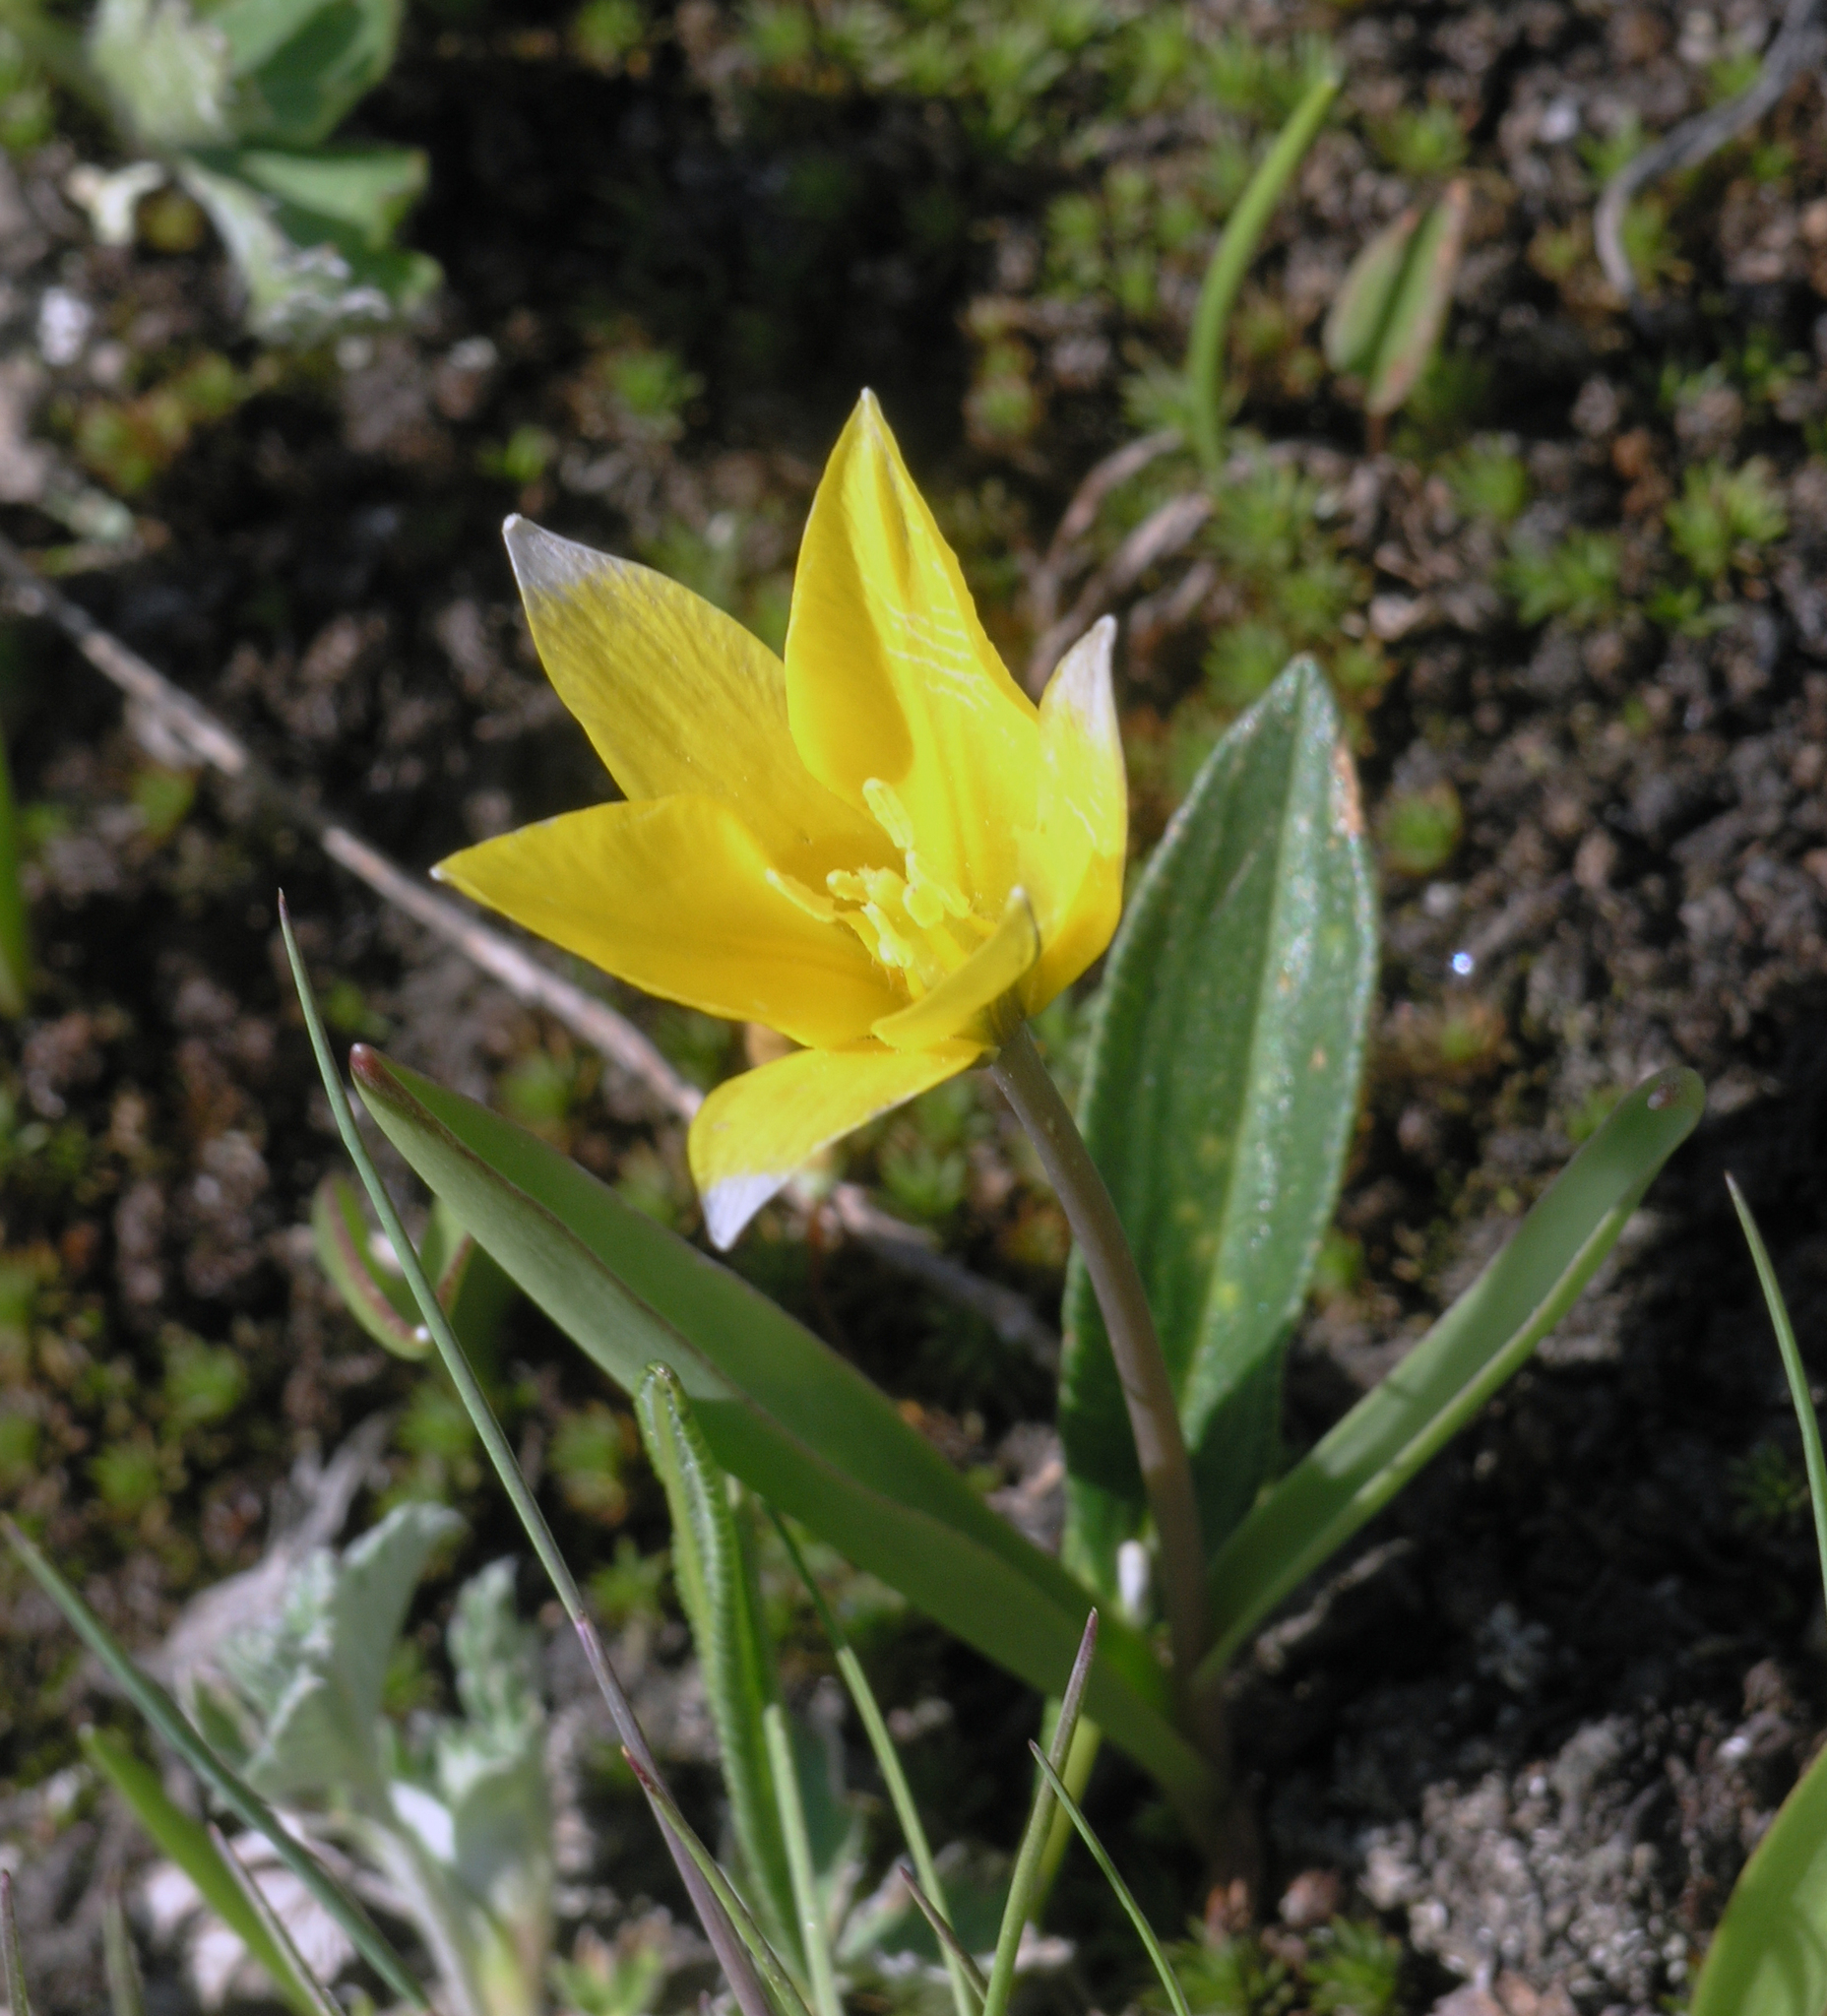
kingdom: Plantae
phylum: Tracheophyta
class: Liliopsida
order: Liliales
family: Liliaceae
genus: Tulipa
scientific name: Tulipa dasystemon
